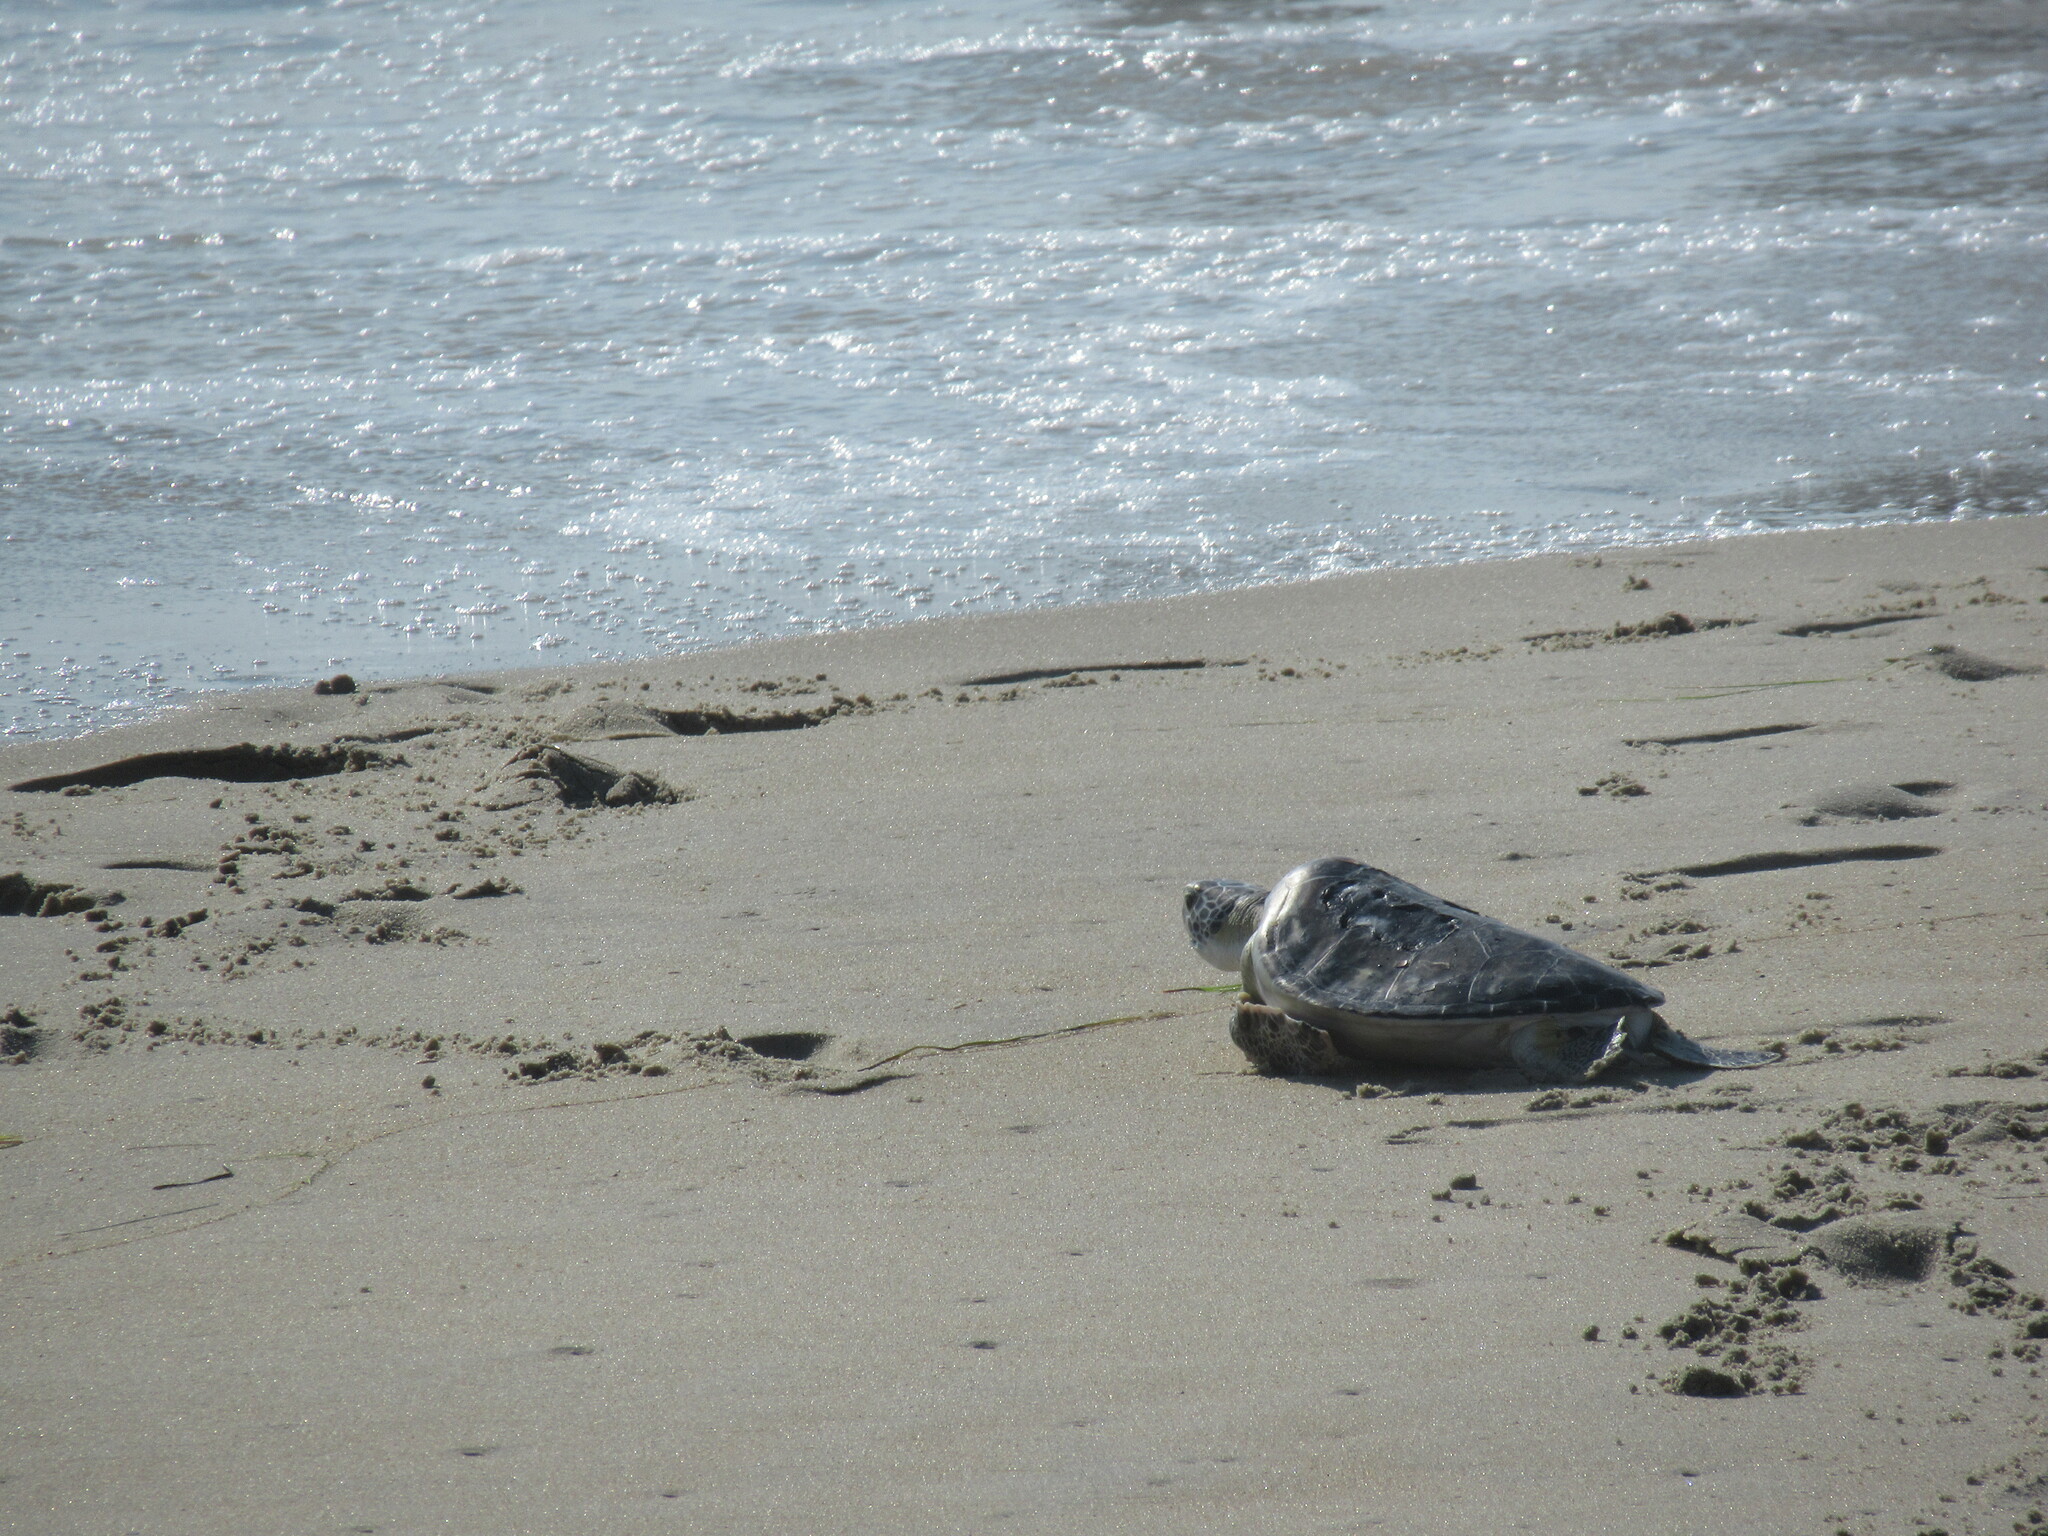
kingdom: Animalia
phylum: Chordata
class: Testudines
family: Cheloniidae
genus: Chelonia
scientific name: Chelonia mydas
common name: Green turtle
